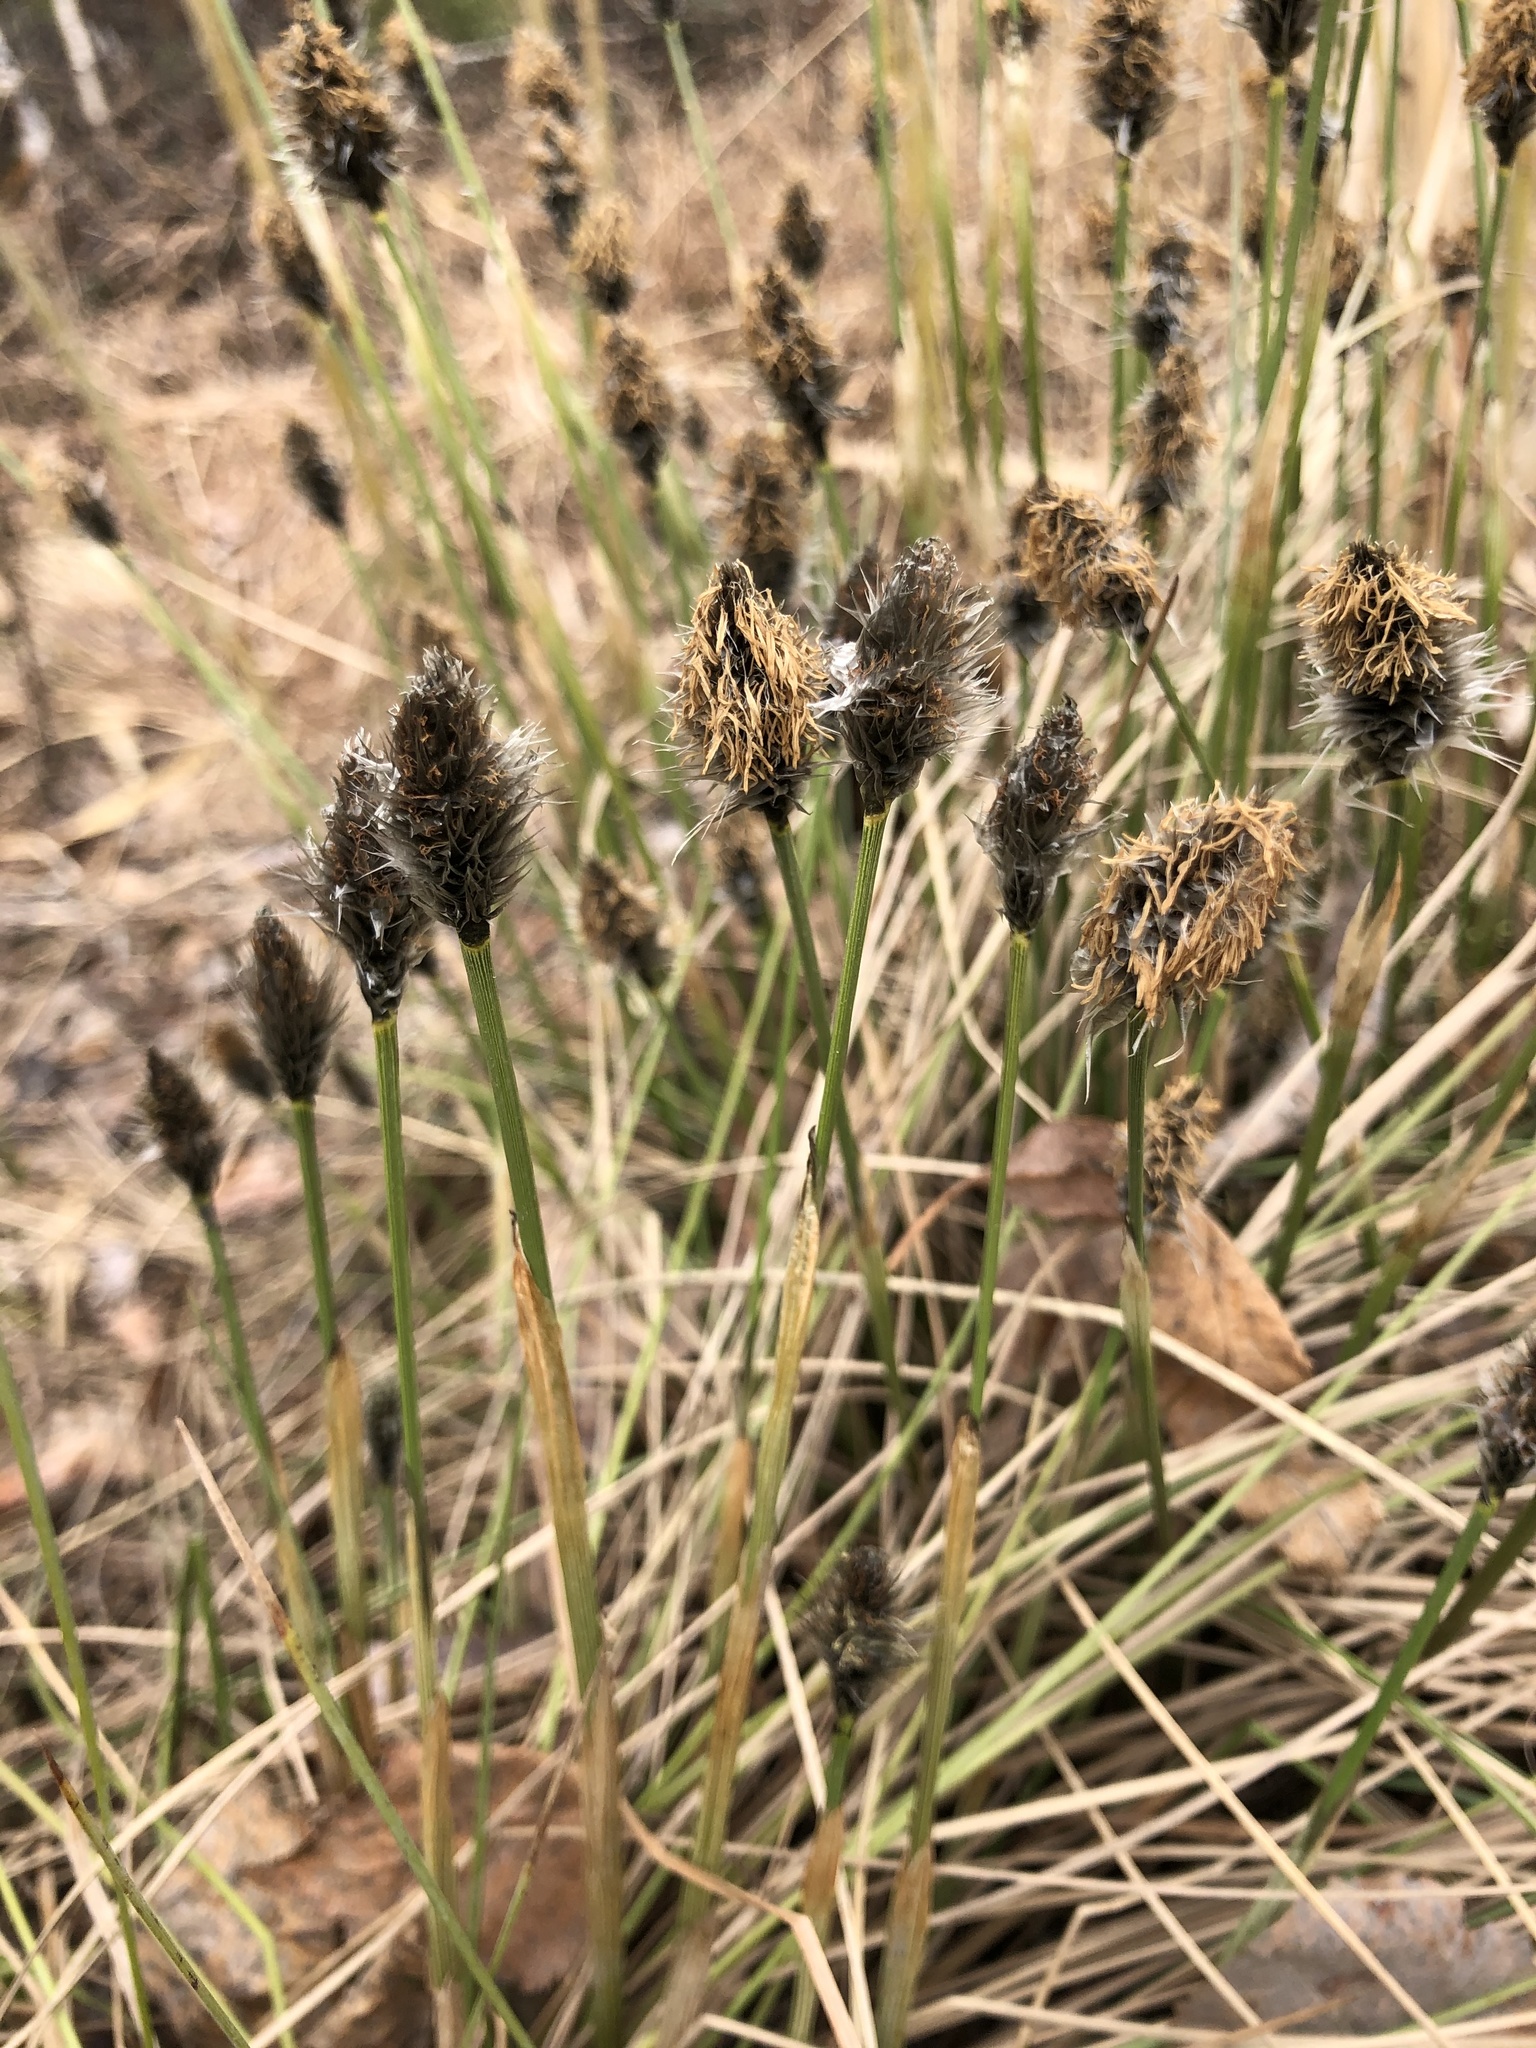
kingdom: Plantae
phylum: Tracheophyta
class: Liliopsida
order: Poales
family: Cyperaceae
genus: Eriophorum
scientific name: Eriophorum vaginatum
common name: Hare's-tail cottongrass
